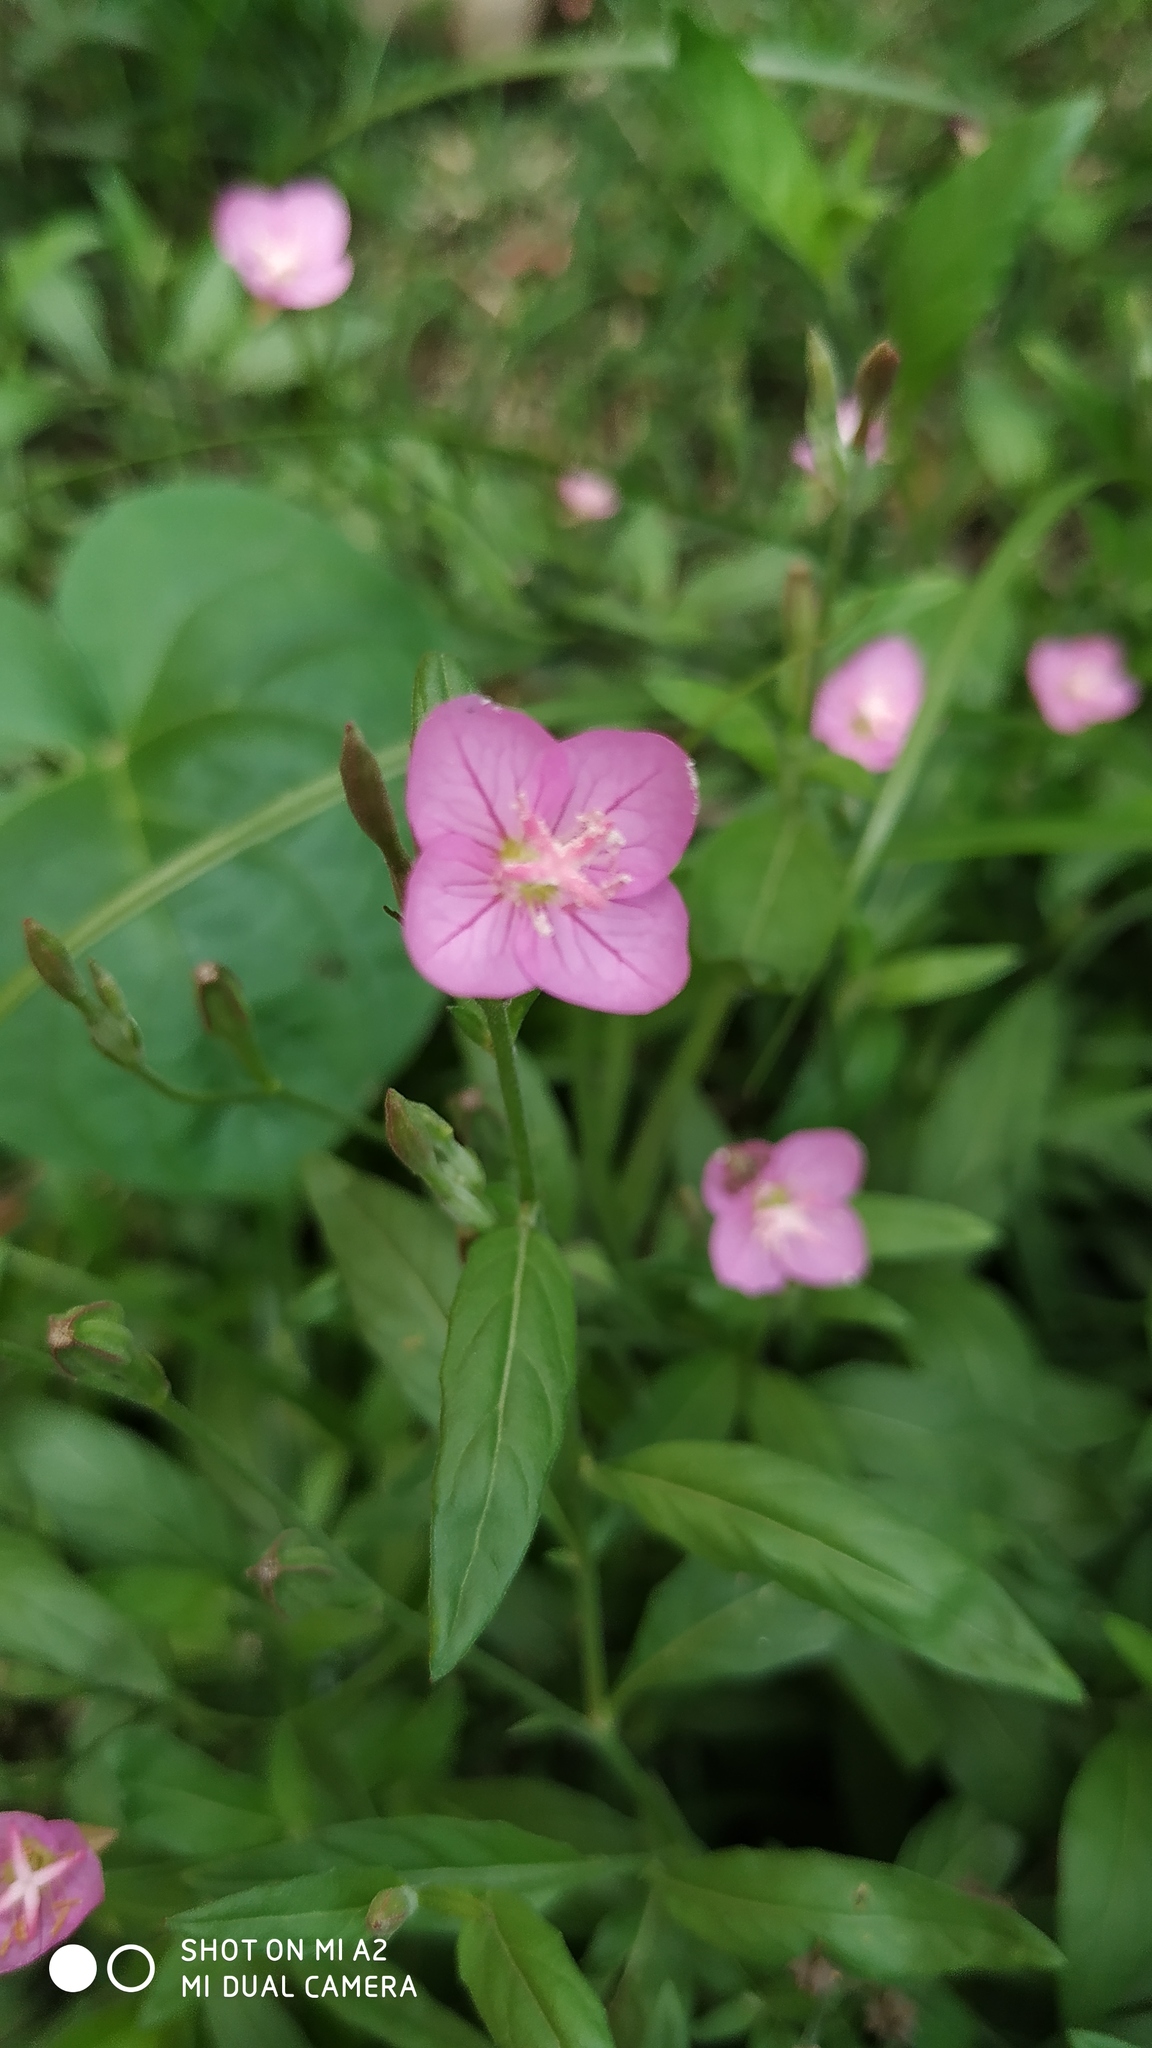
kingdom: Plantae
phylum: Tracheophyta
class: Magnoliopsida
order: Myrtales
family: Onagraceae
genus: Oenothera
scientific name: Oenothera rosea
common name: Rosy evening-primrose
